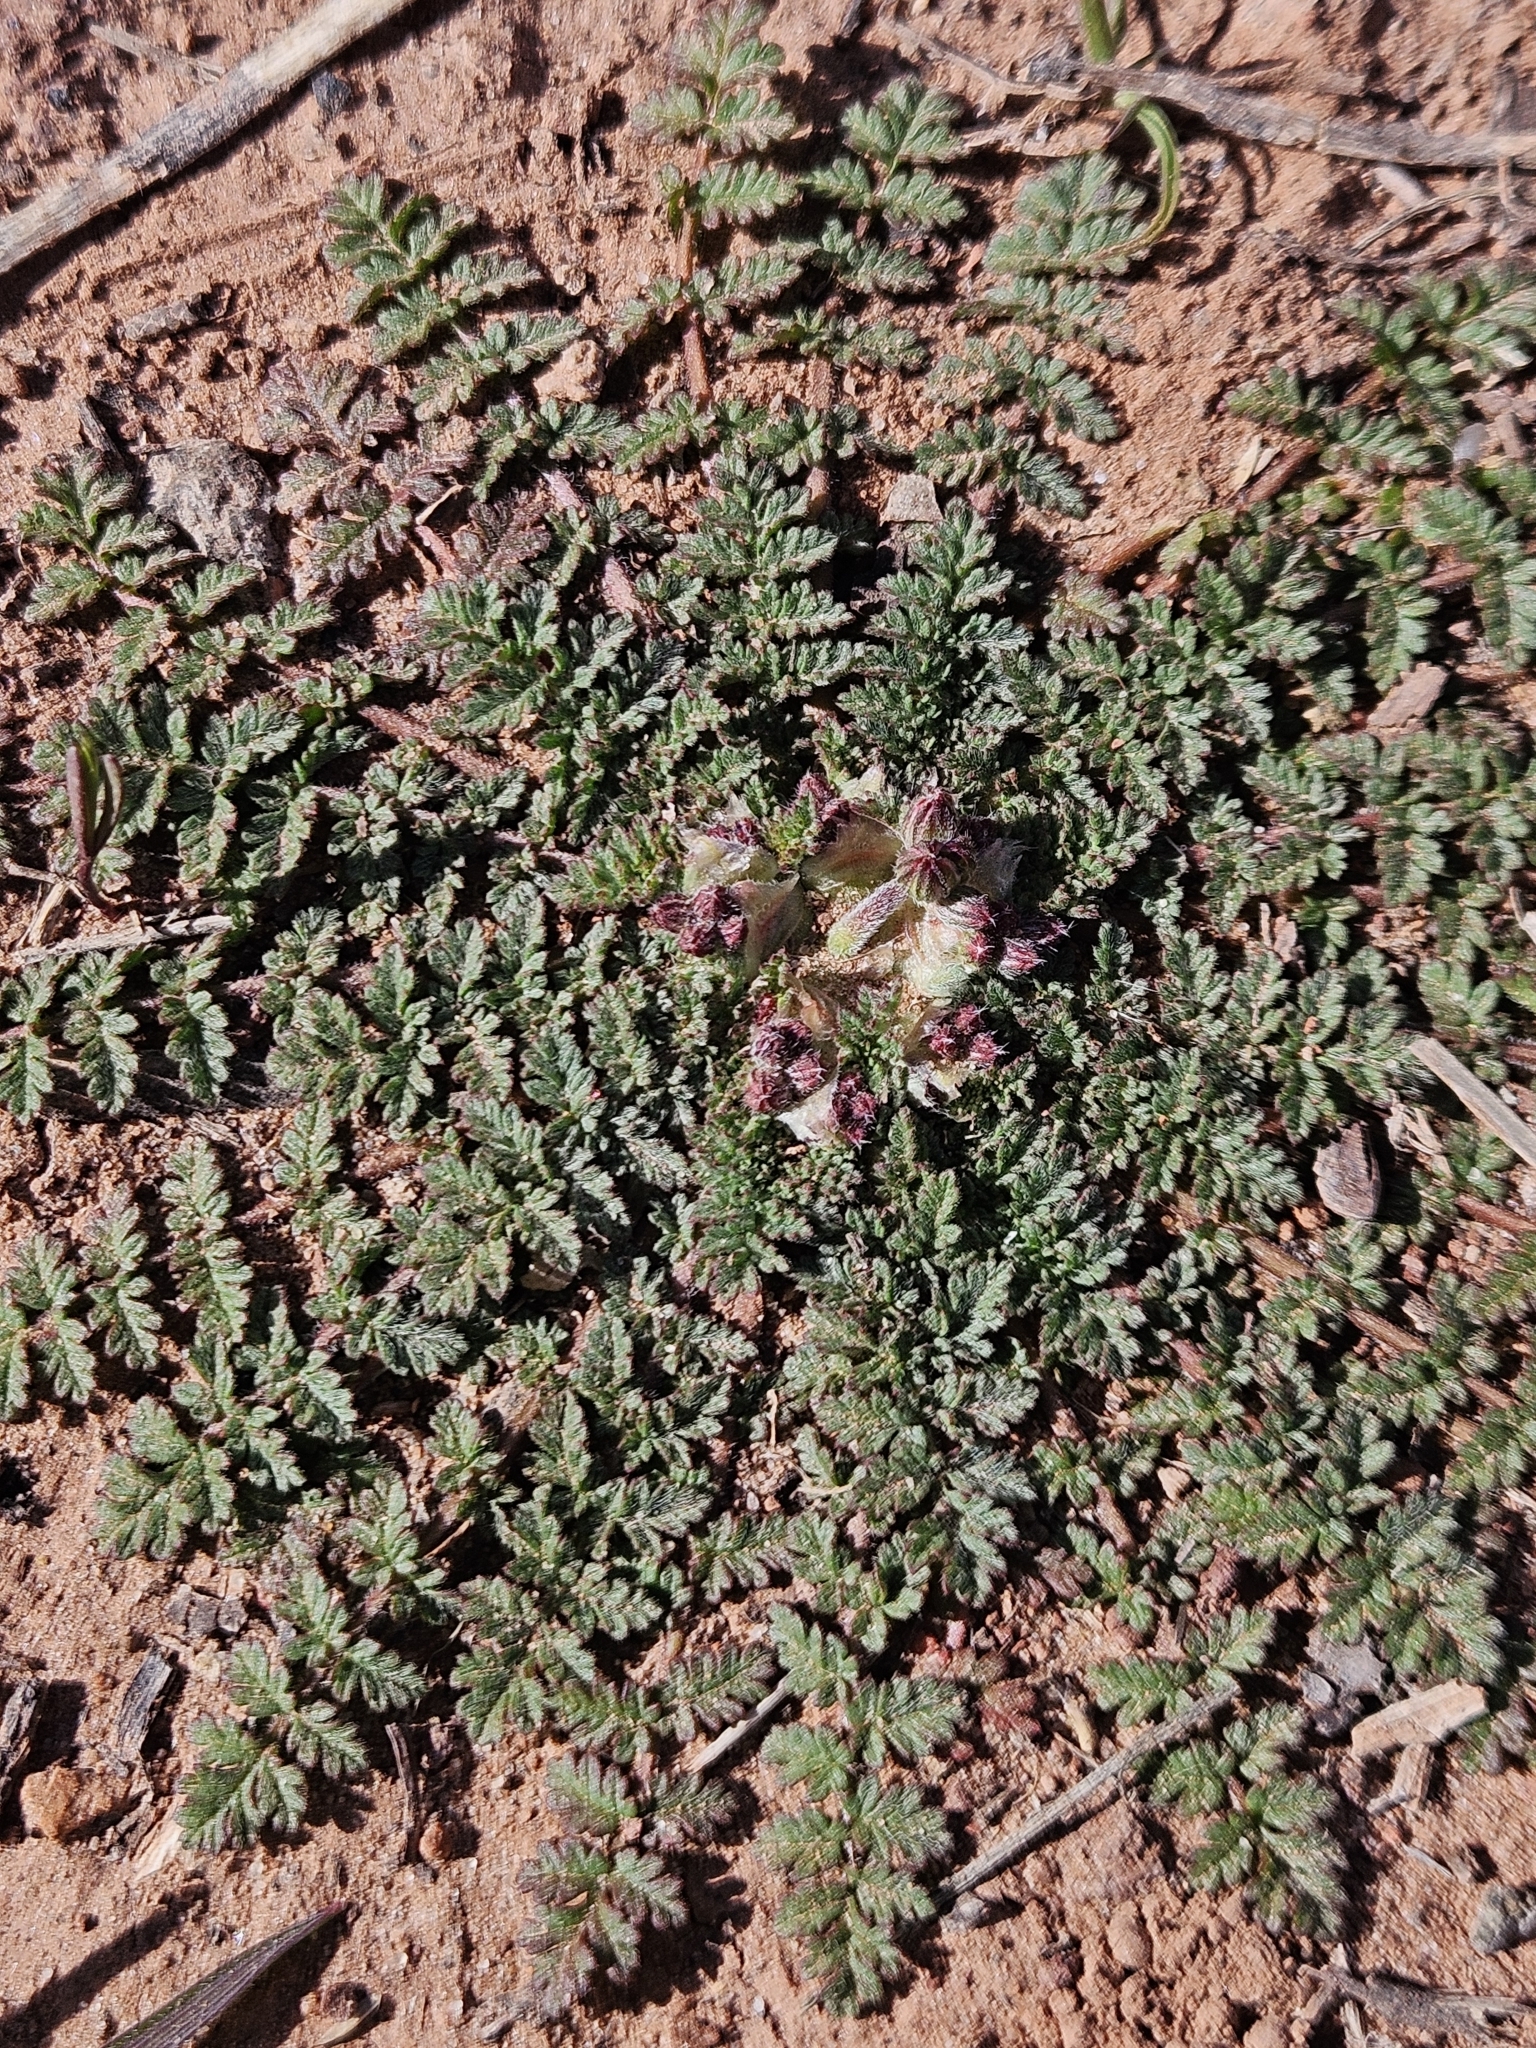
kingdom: Plantae
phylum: Tracheophyta
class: Magnoliopsida
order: Geraniales
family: Geraniaceae
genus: Erodium
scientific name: Erodium cicutarium
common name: Common stork's-bill
